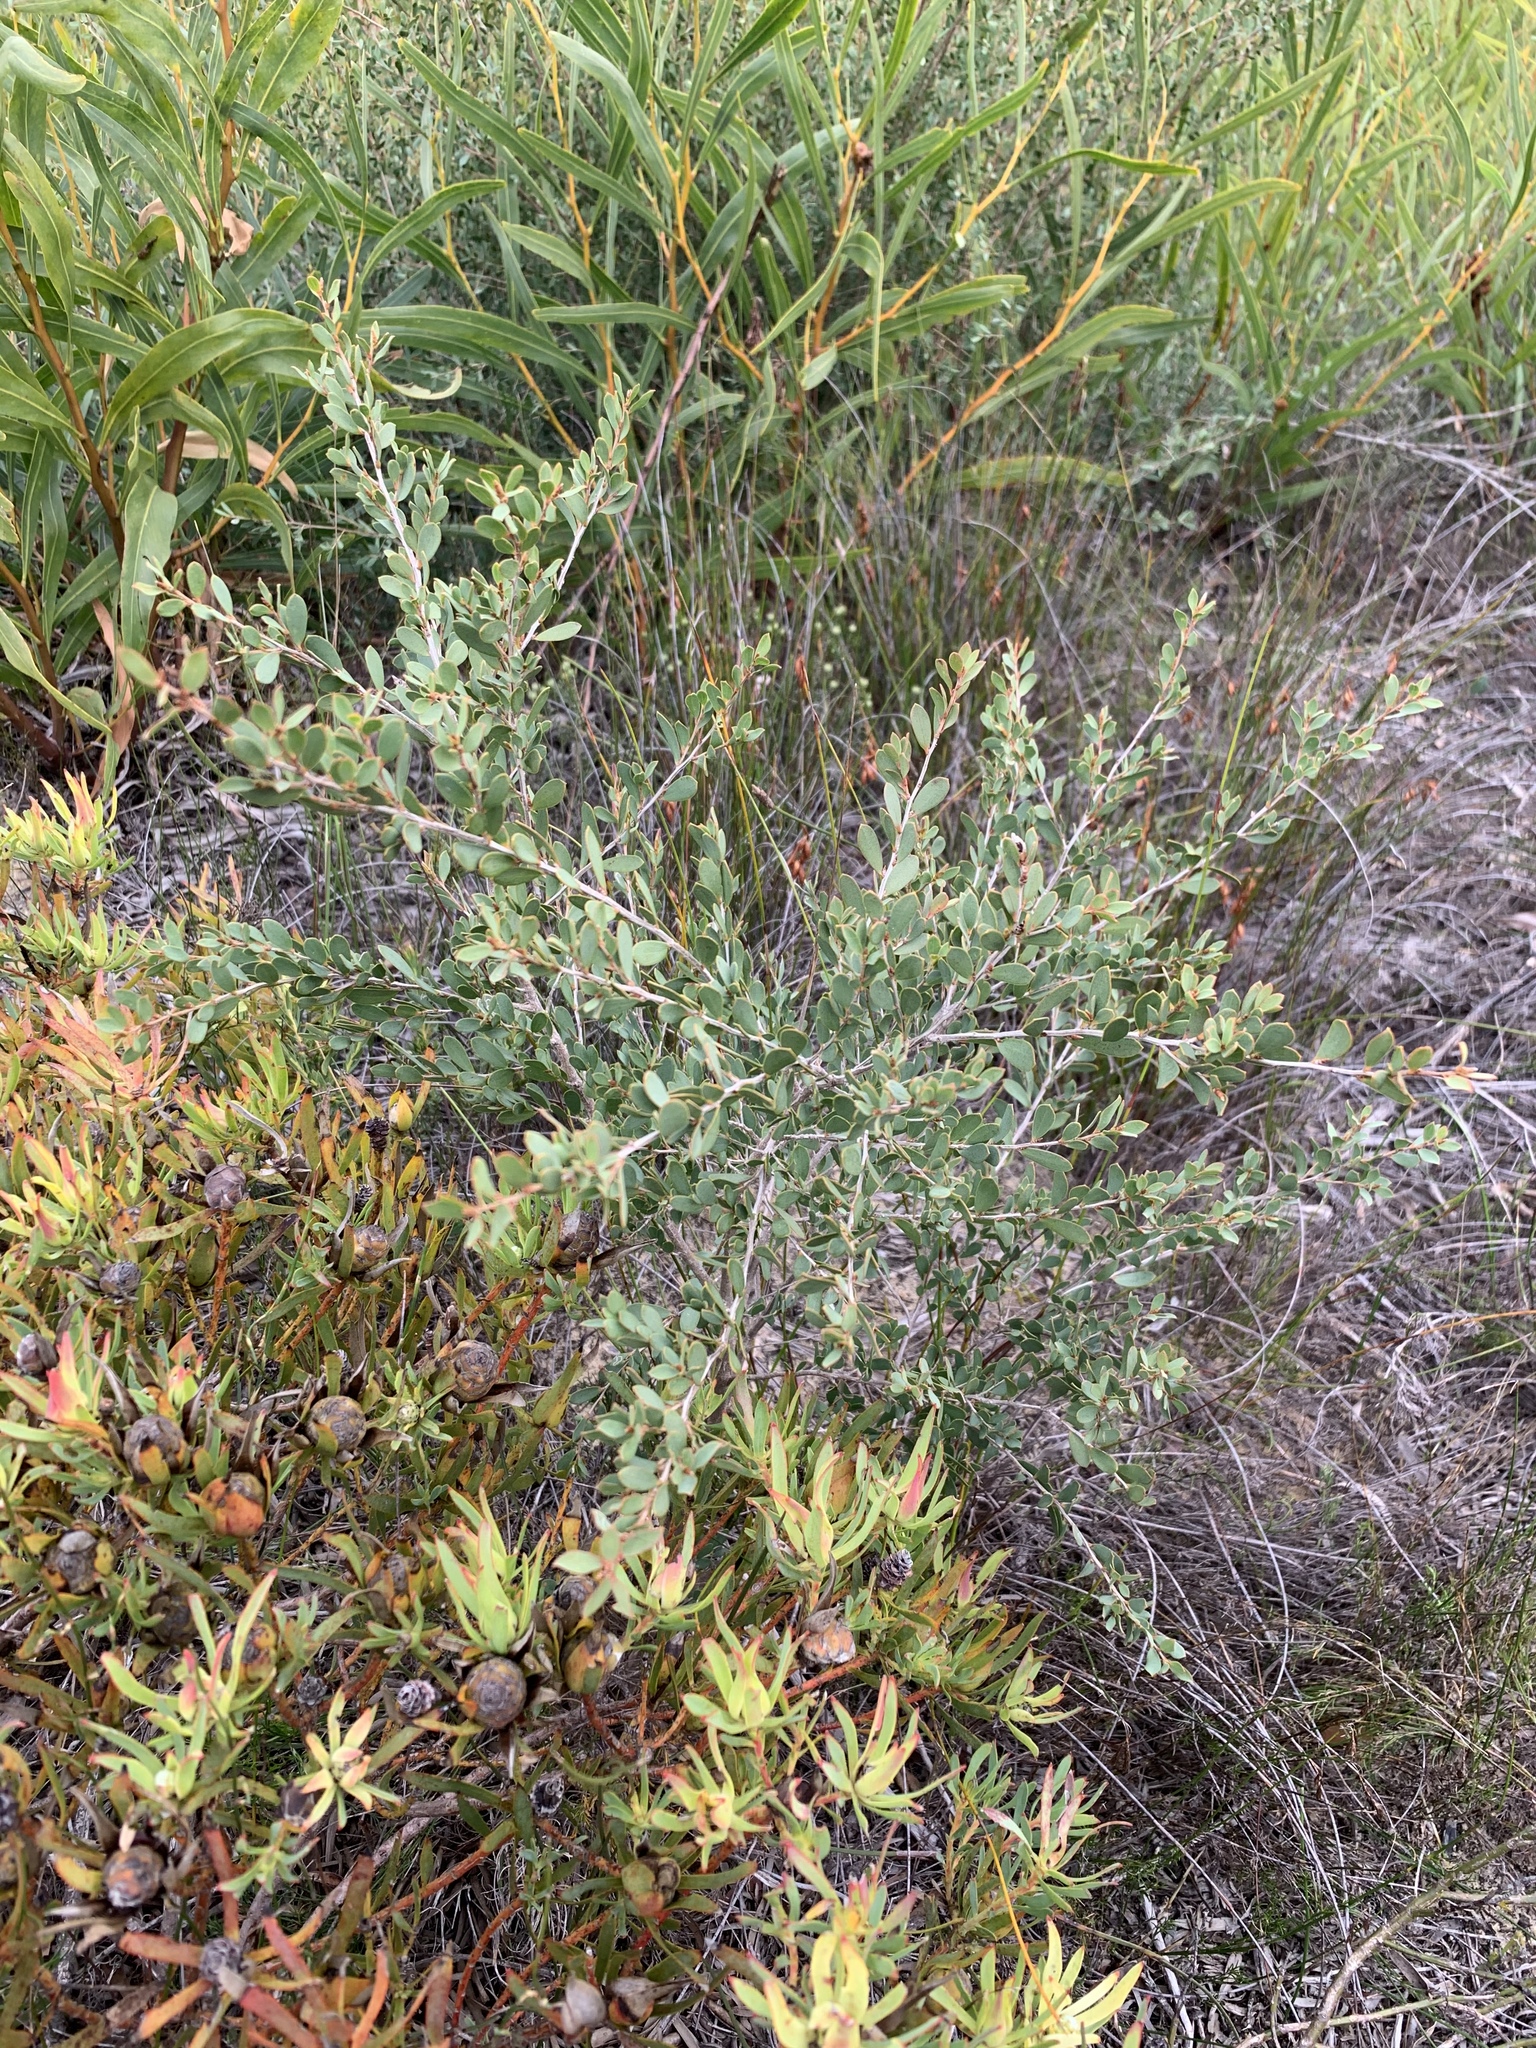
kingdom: Plantae
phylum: Tracheophyta
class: Magnoliopsida
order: Myrtales
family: Myrtaceae
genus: Leptospermum
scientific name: Leptospermum laevigatum
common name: Australian teatree
